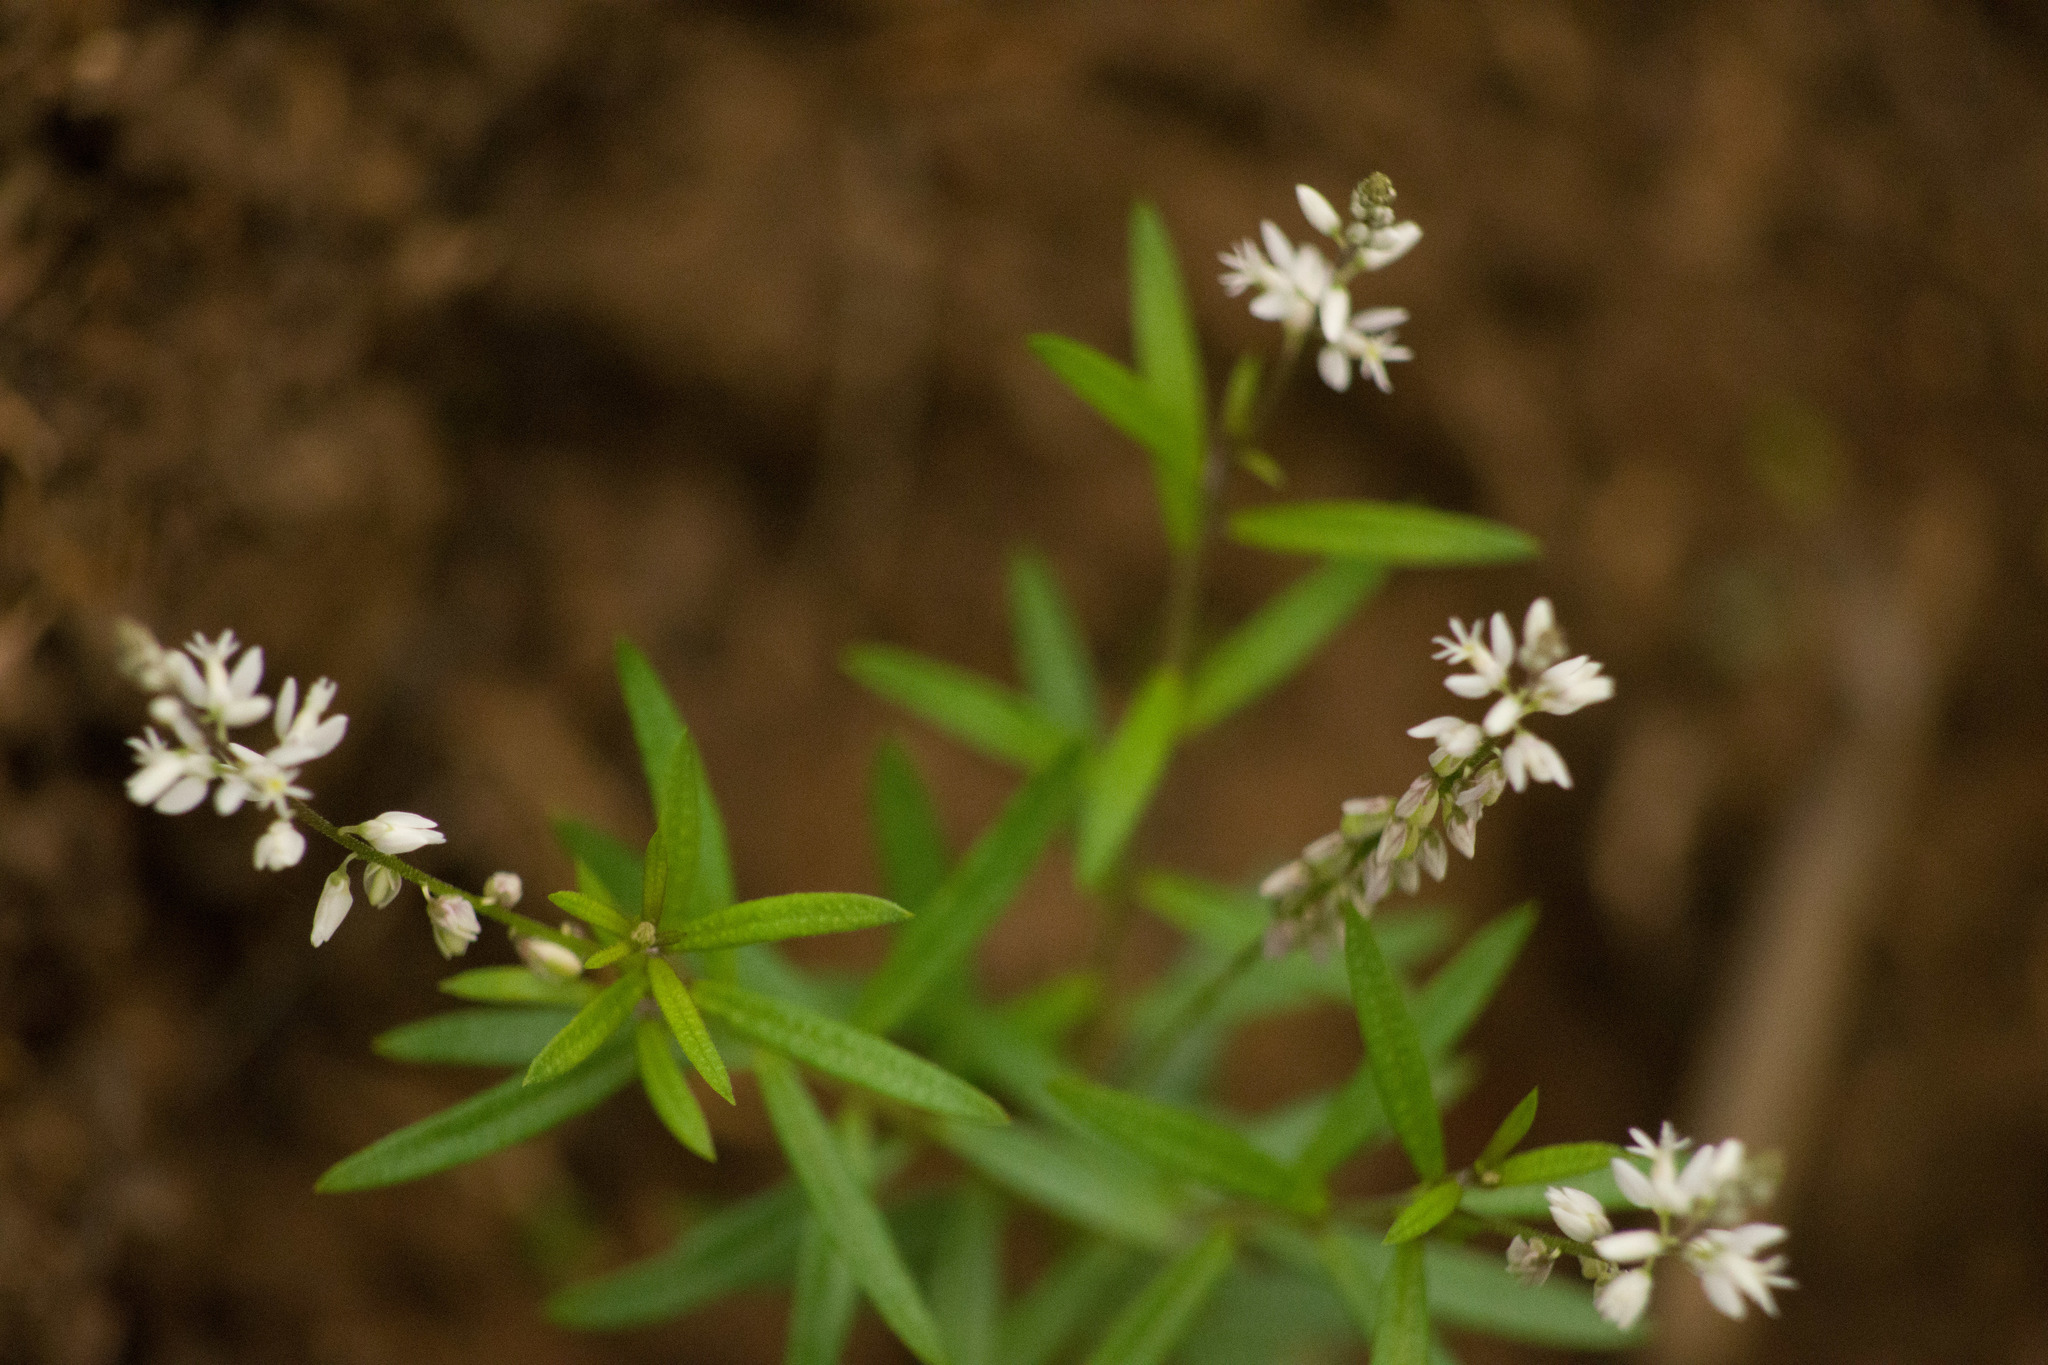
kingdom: Plantae
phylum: Tracheophyta
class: Magnoliopsida
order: Fabales
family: Polygalaceae
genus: Polygala
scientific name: Polygala paniculata
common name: Orosne
